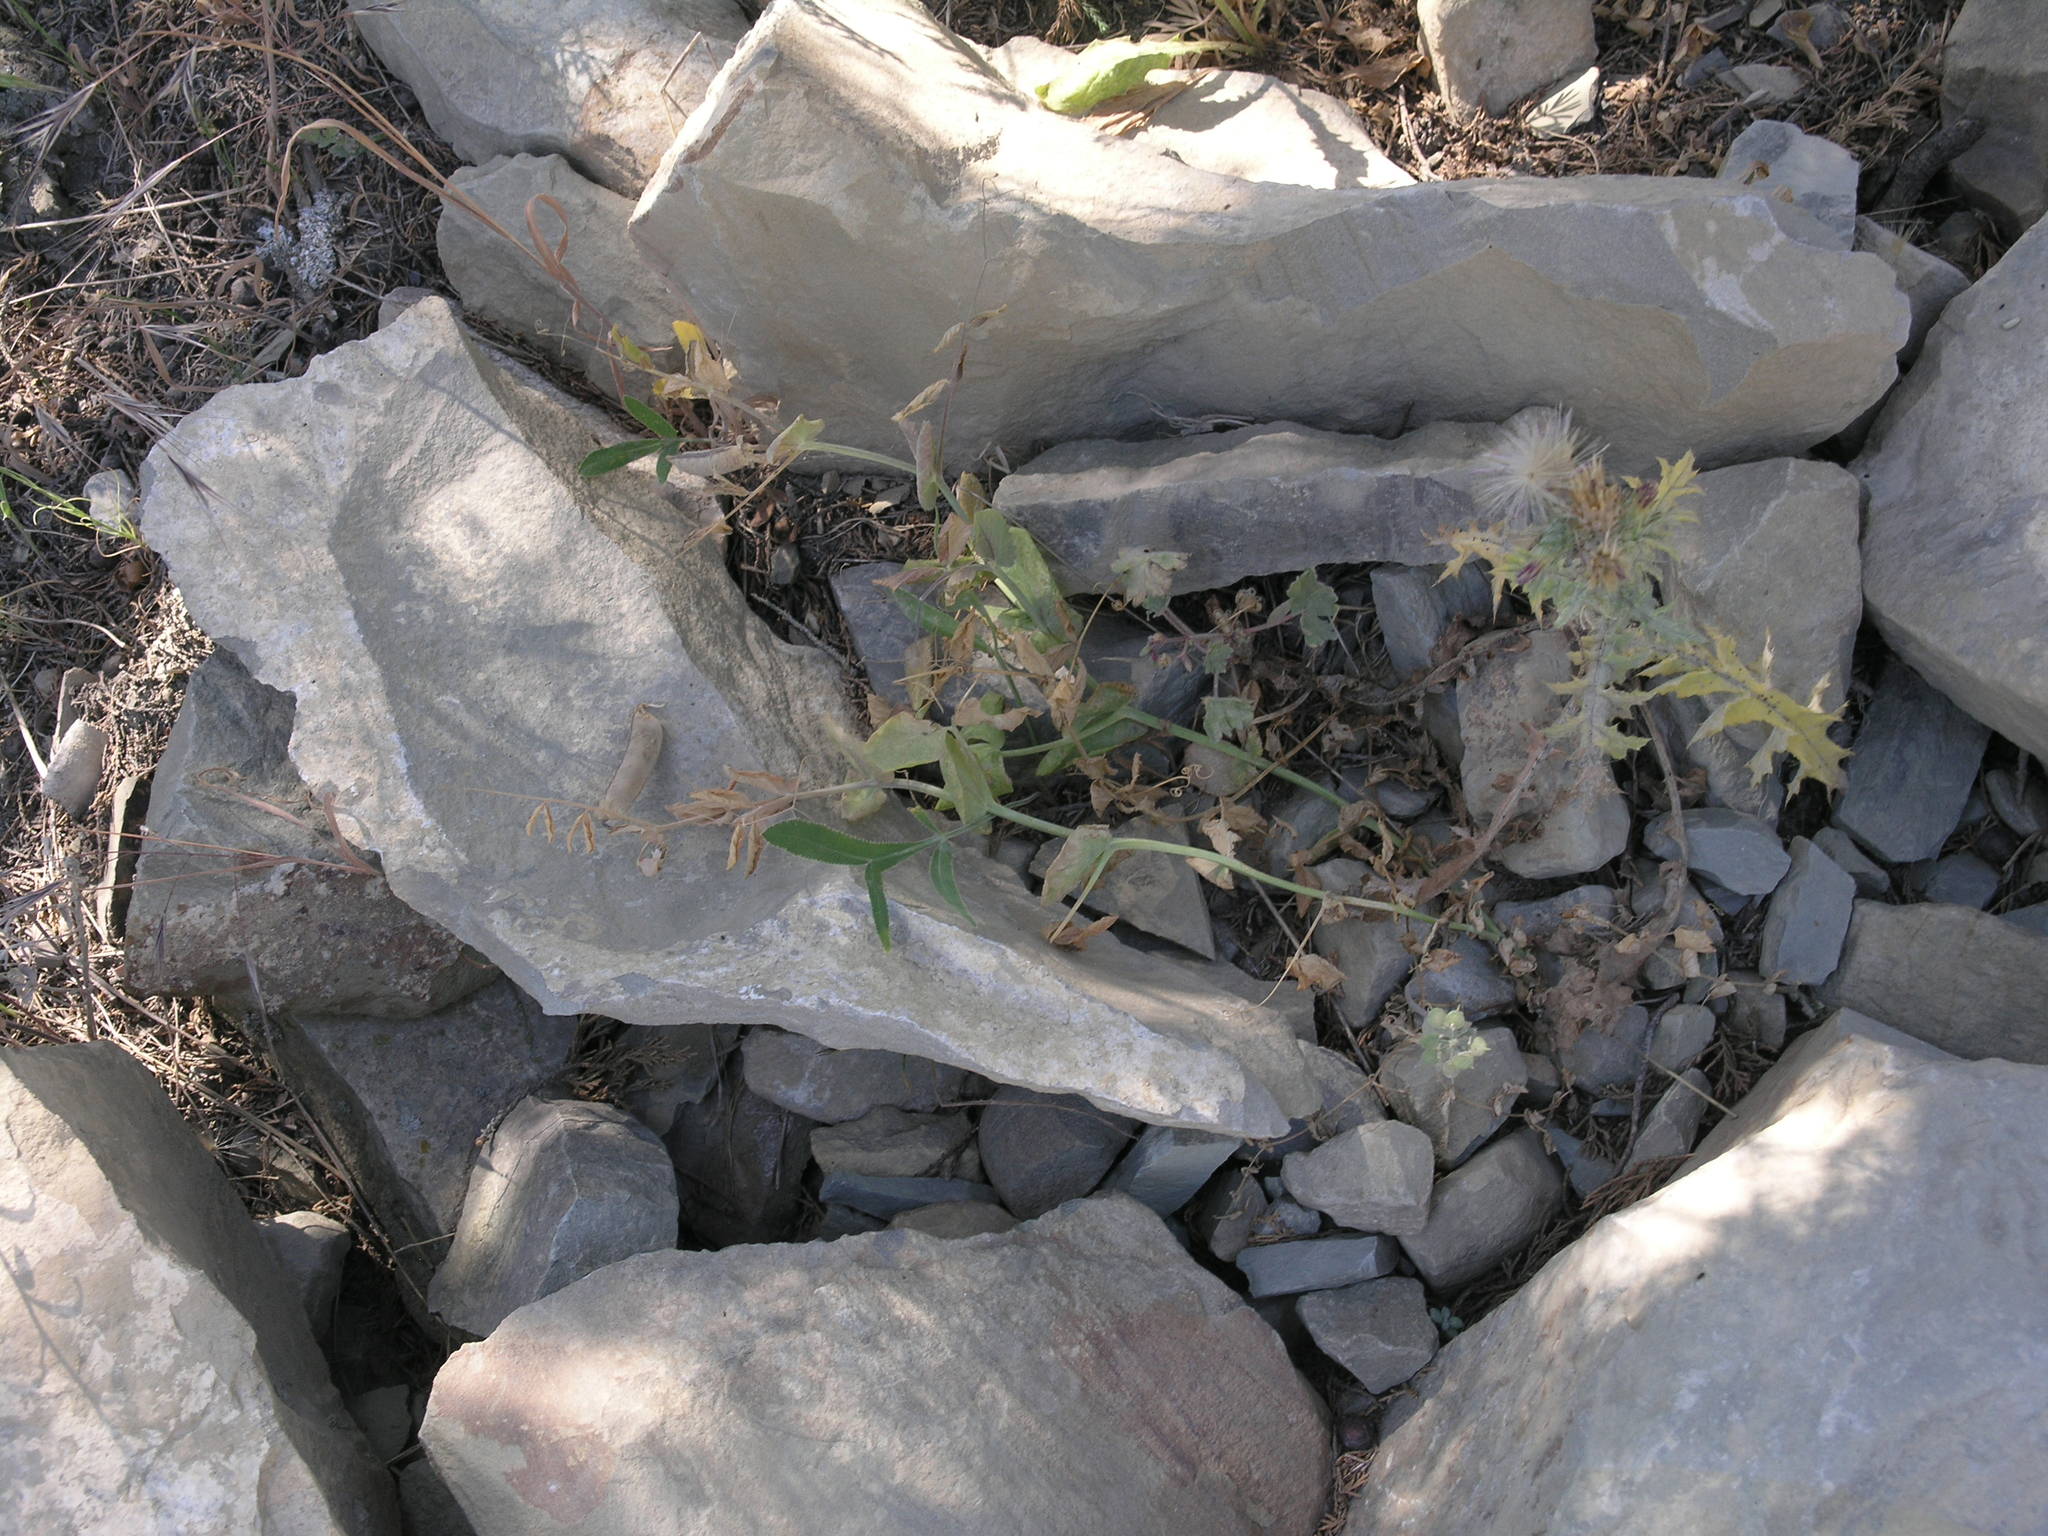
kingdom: Plantae
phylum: Tracheophyta
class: Magnoliopsida
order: Fabales
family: Fabaceae
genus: Lathyrus
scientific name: Lathyrus oleraceus
